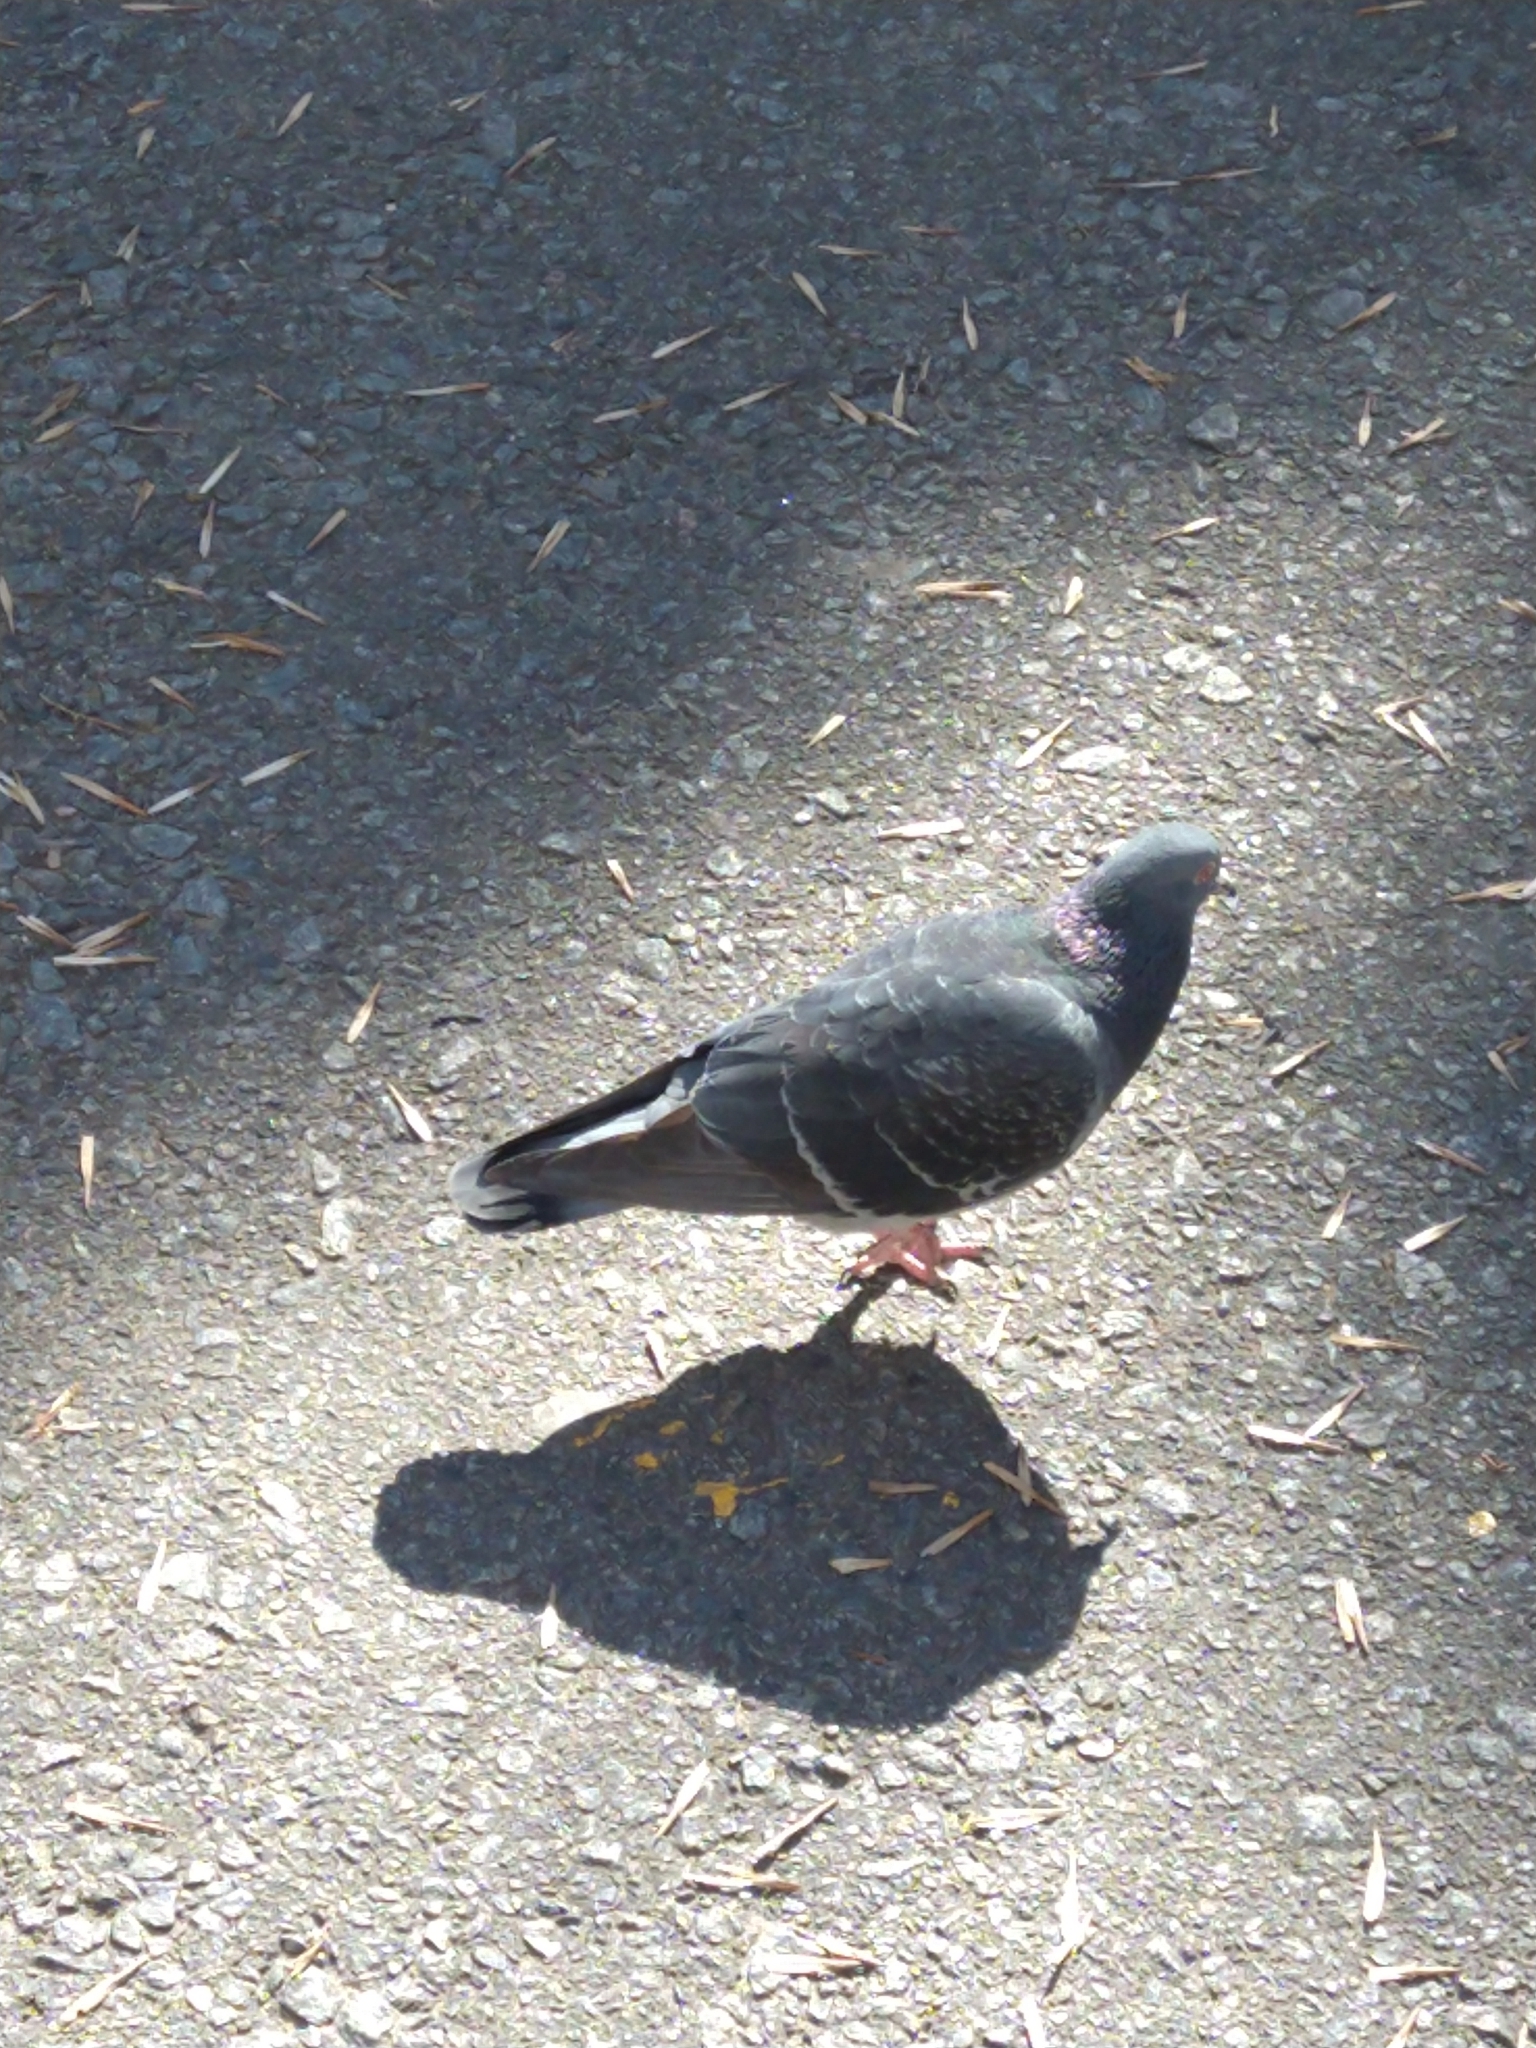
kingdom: Animalia
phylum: Chordata
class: Aves
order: Columbiformes
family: Columbidae
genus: Columba
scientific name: Columba livia
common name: Rock pigeon
